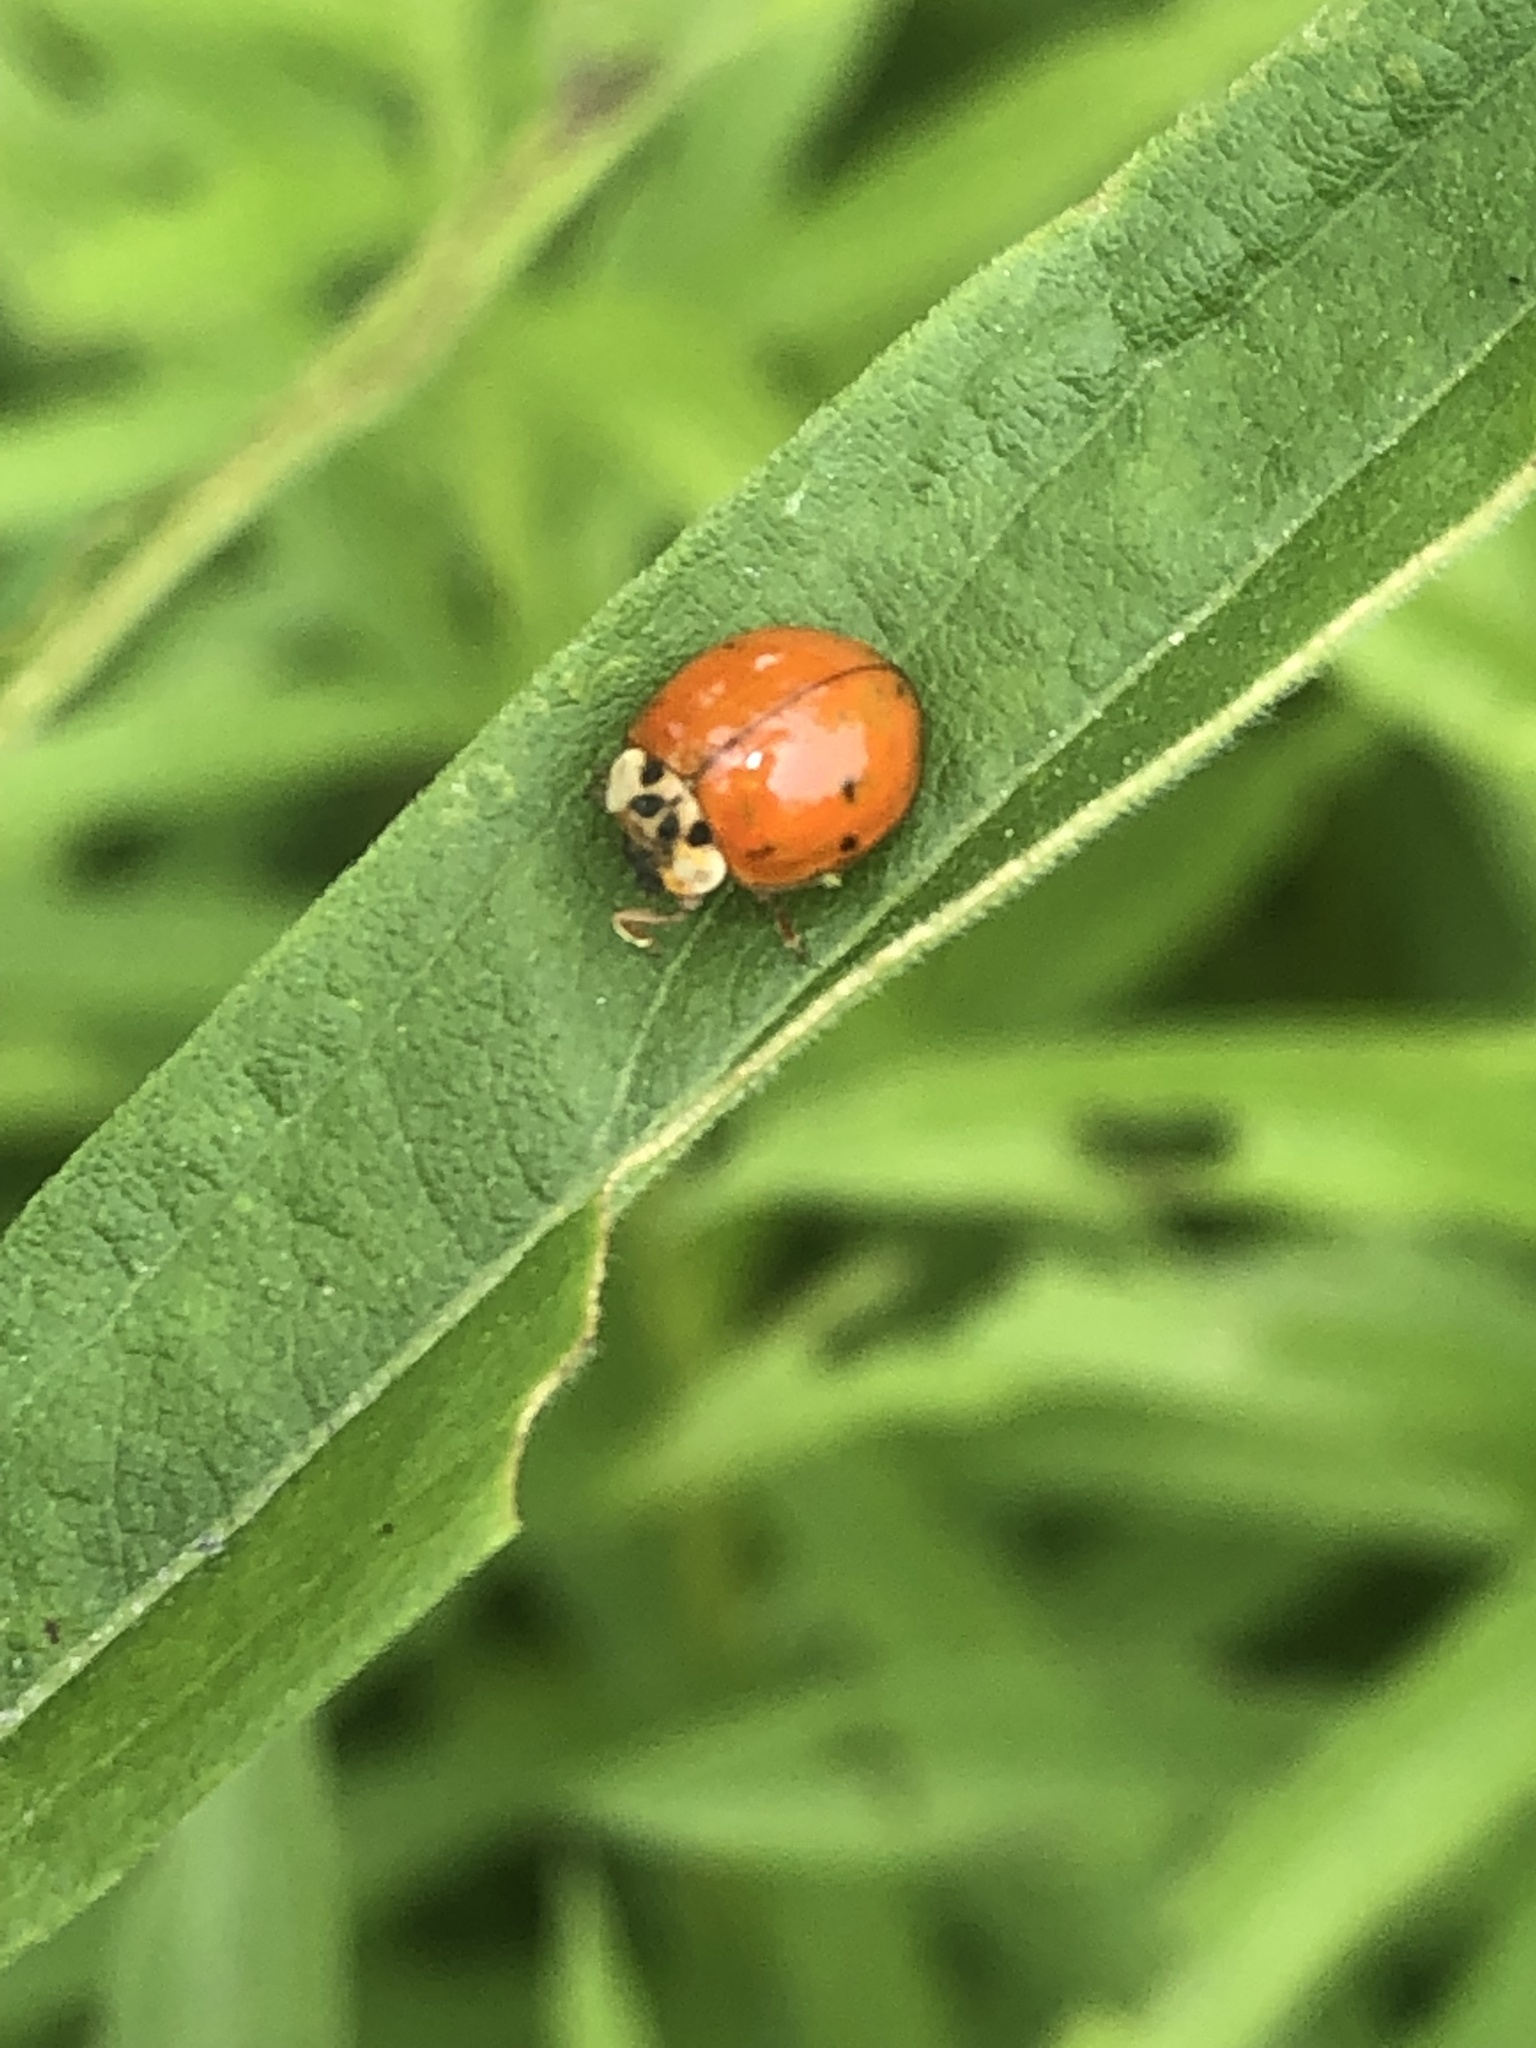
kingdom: Animalia
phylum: Arthropoda
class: Insecta
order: Coleoptera
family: Coccinellidae
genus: Harmonia
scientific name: Harmonia axyridis
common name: Harlequin ladybird
